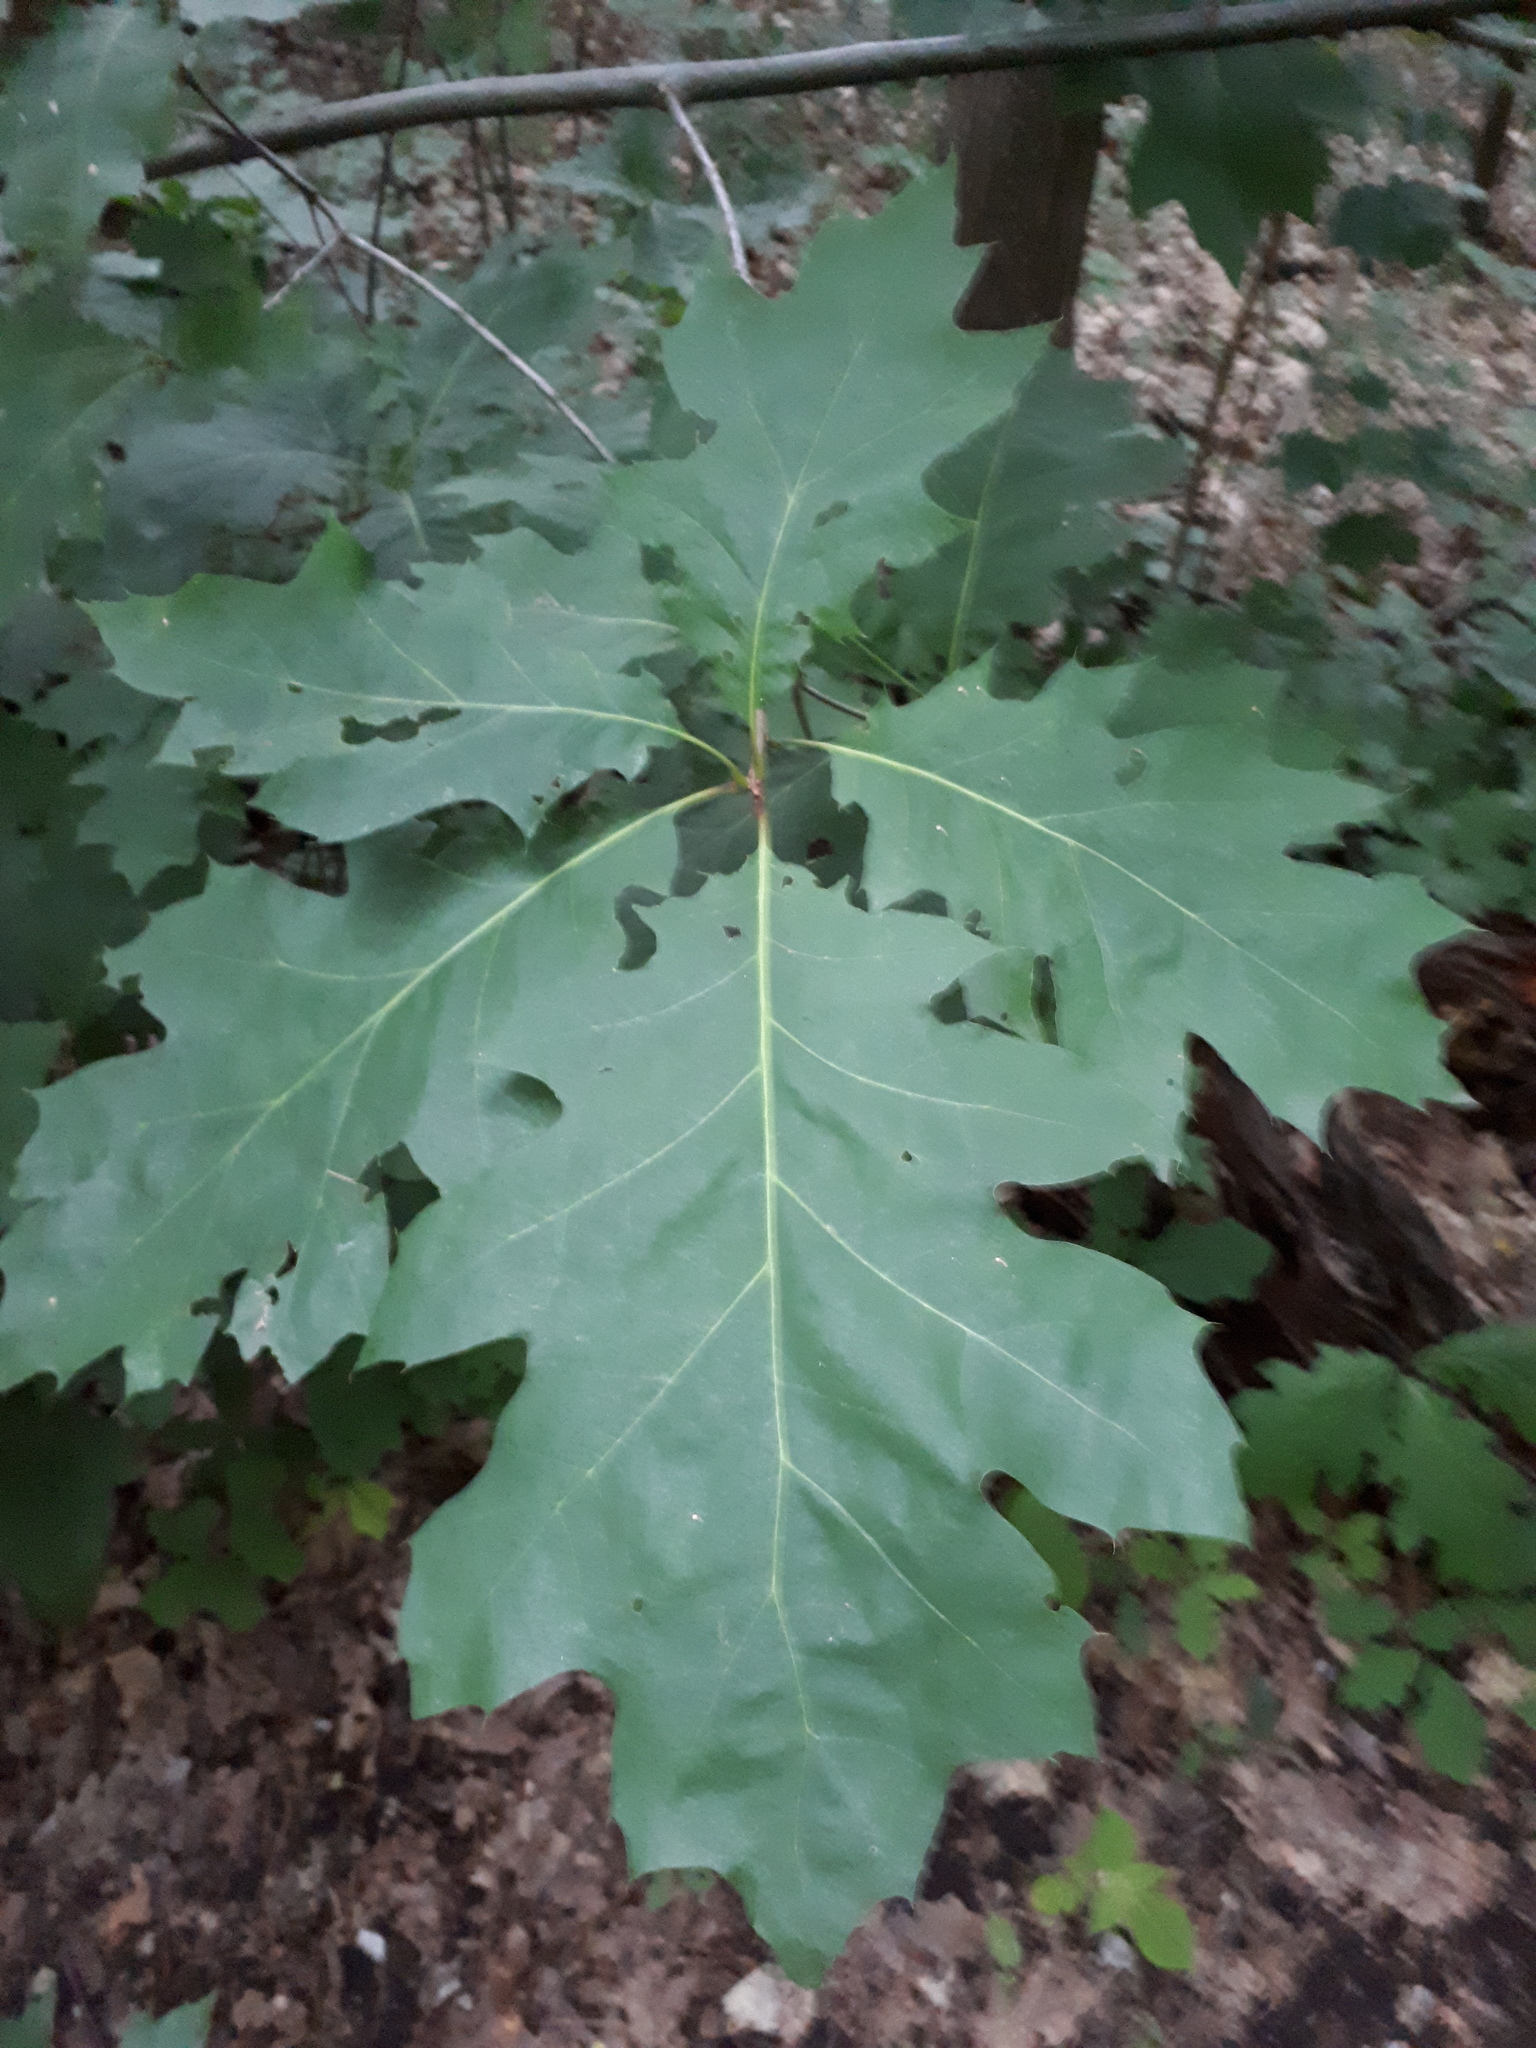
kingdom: Plantae
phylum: Tracheophyta
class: Magnoliopsida
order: Fagales
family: Fagaceae
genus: Quercus
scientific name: Quercus rubra
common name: Red oak
